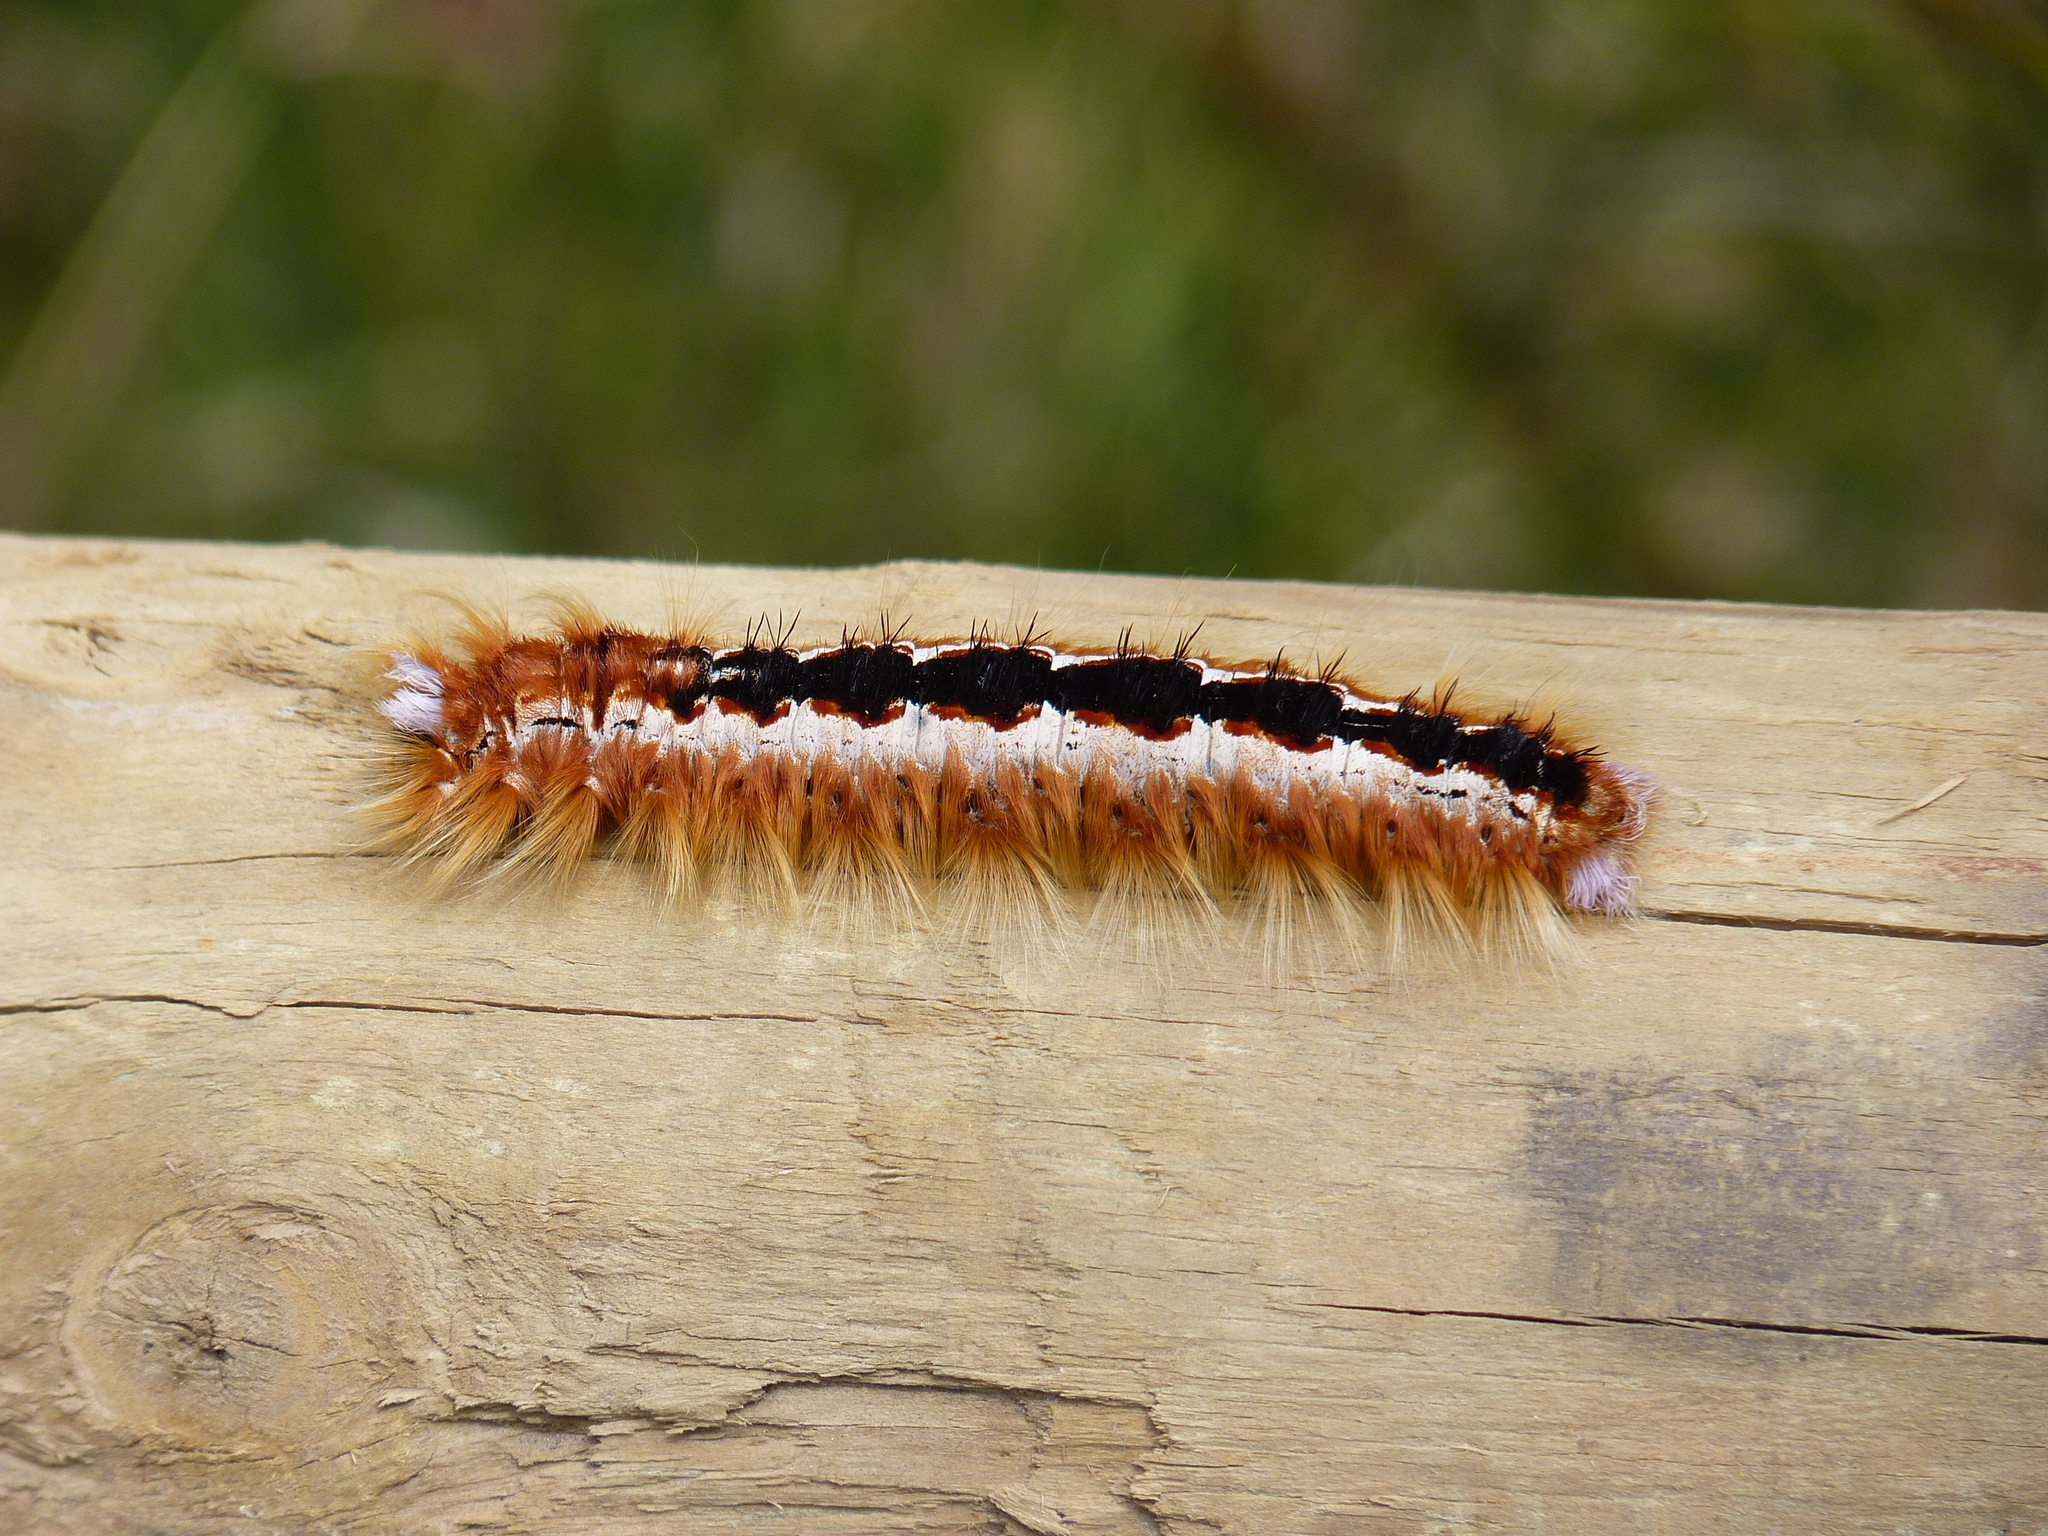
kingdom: Animalia
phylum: Arthropoda
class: Insecta
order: Lepidoptera
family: Lasiocampidae
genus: Eutricha
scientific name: Eutricha capensis
